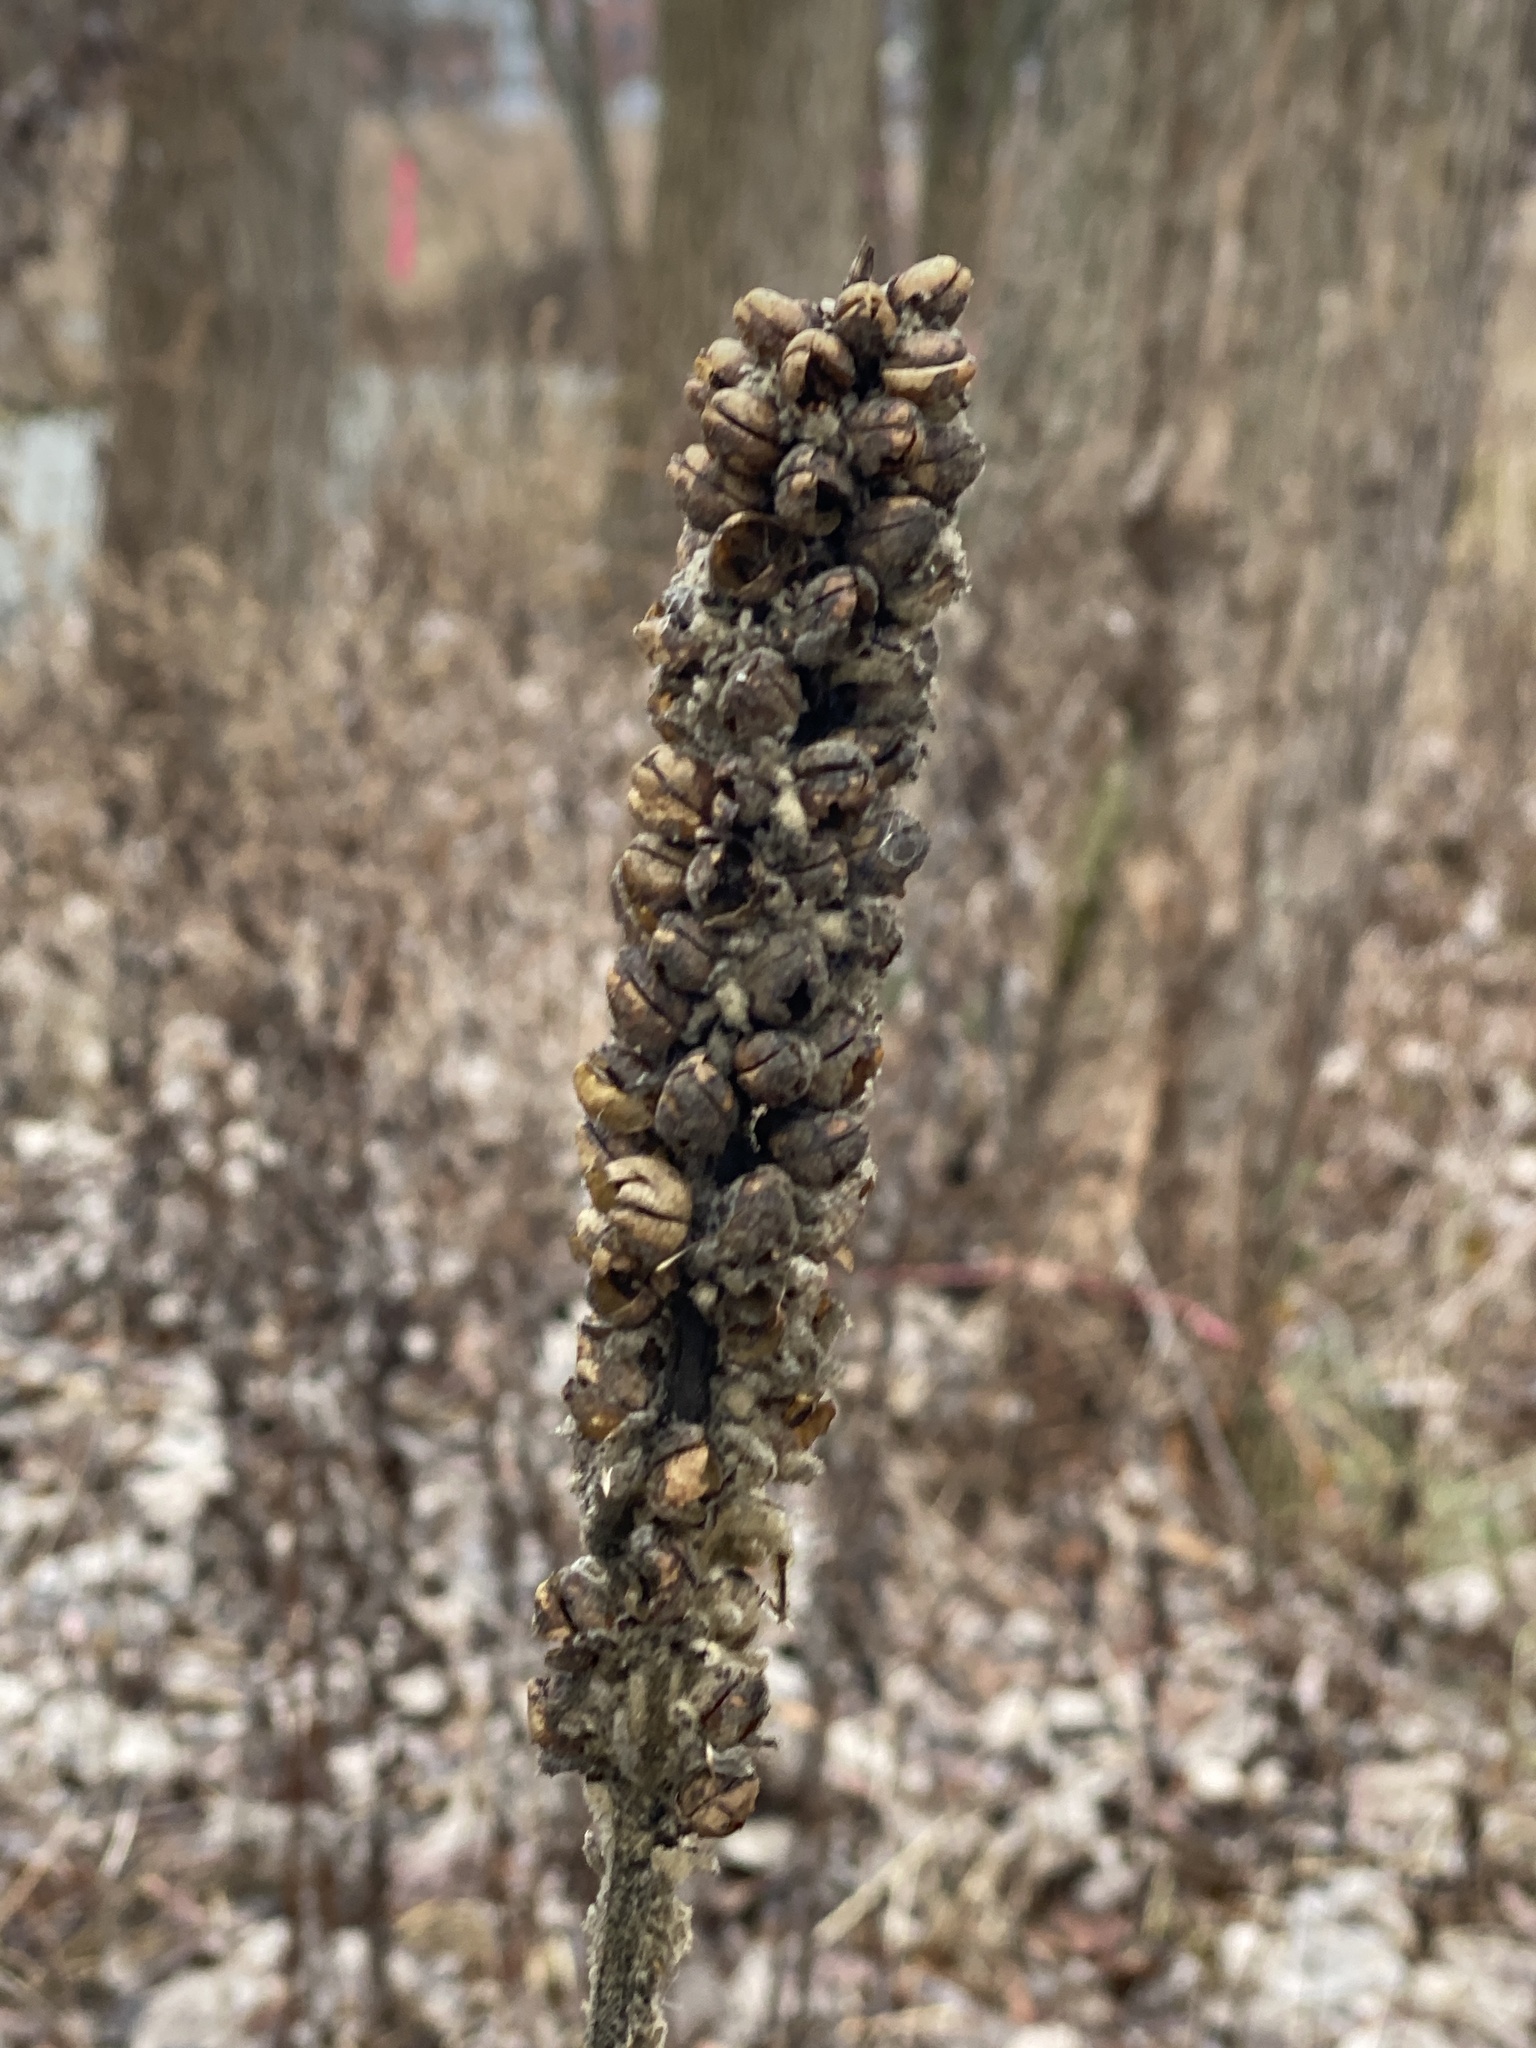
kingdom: Plantae
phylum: Tracheophyta
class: Magnoliopsida
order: Lamiales
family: Scrophulariaceae
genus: Verbascum
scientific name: Verbascum thapsus
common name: Common mullein
